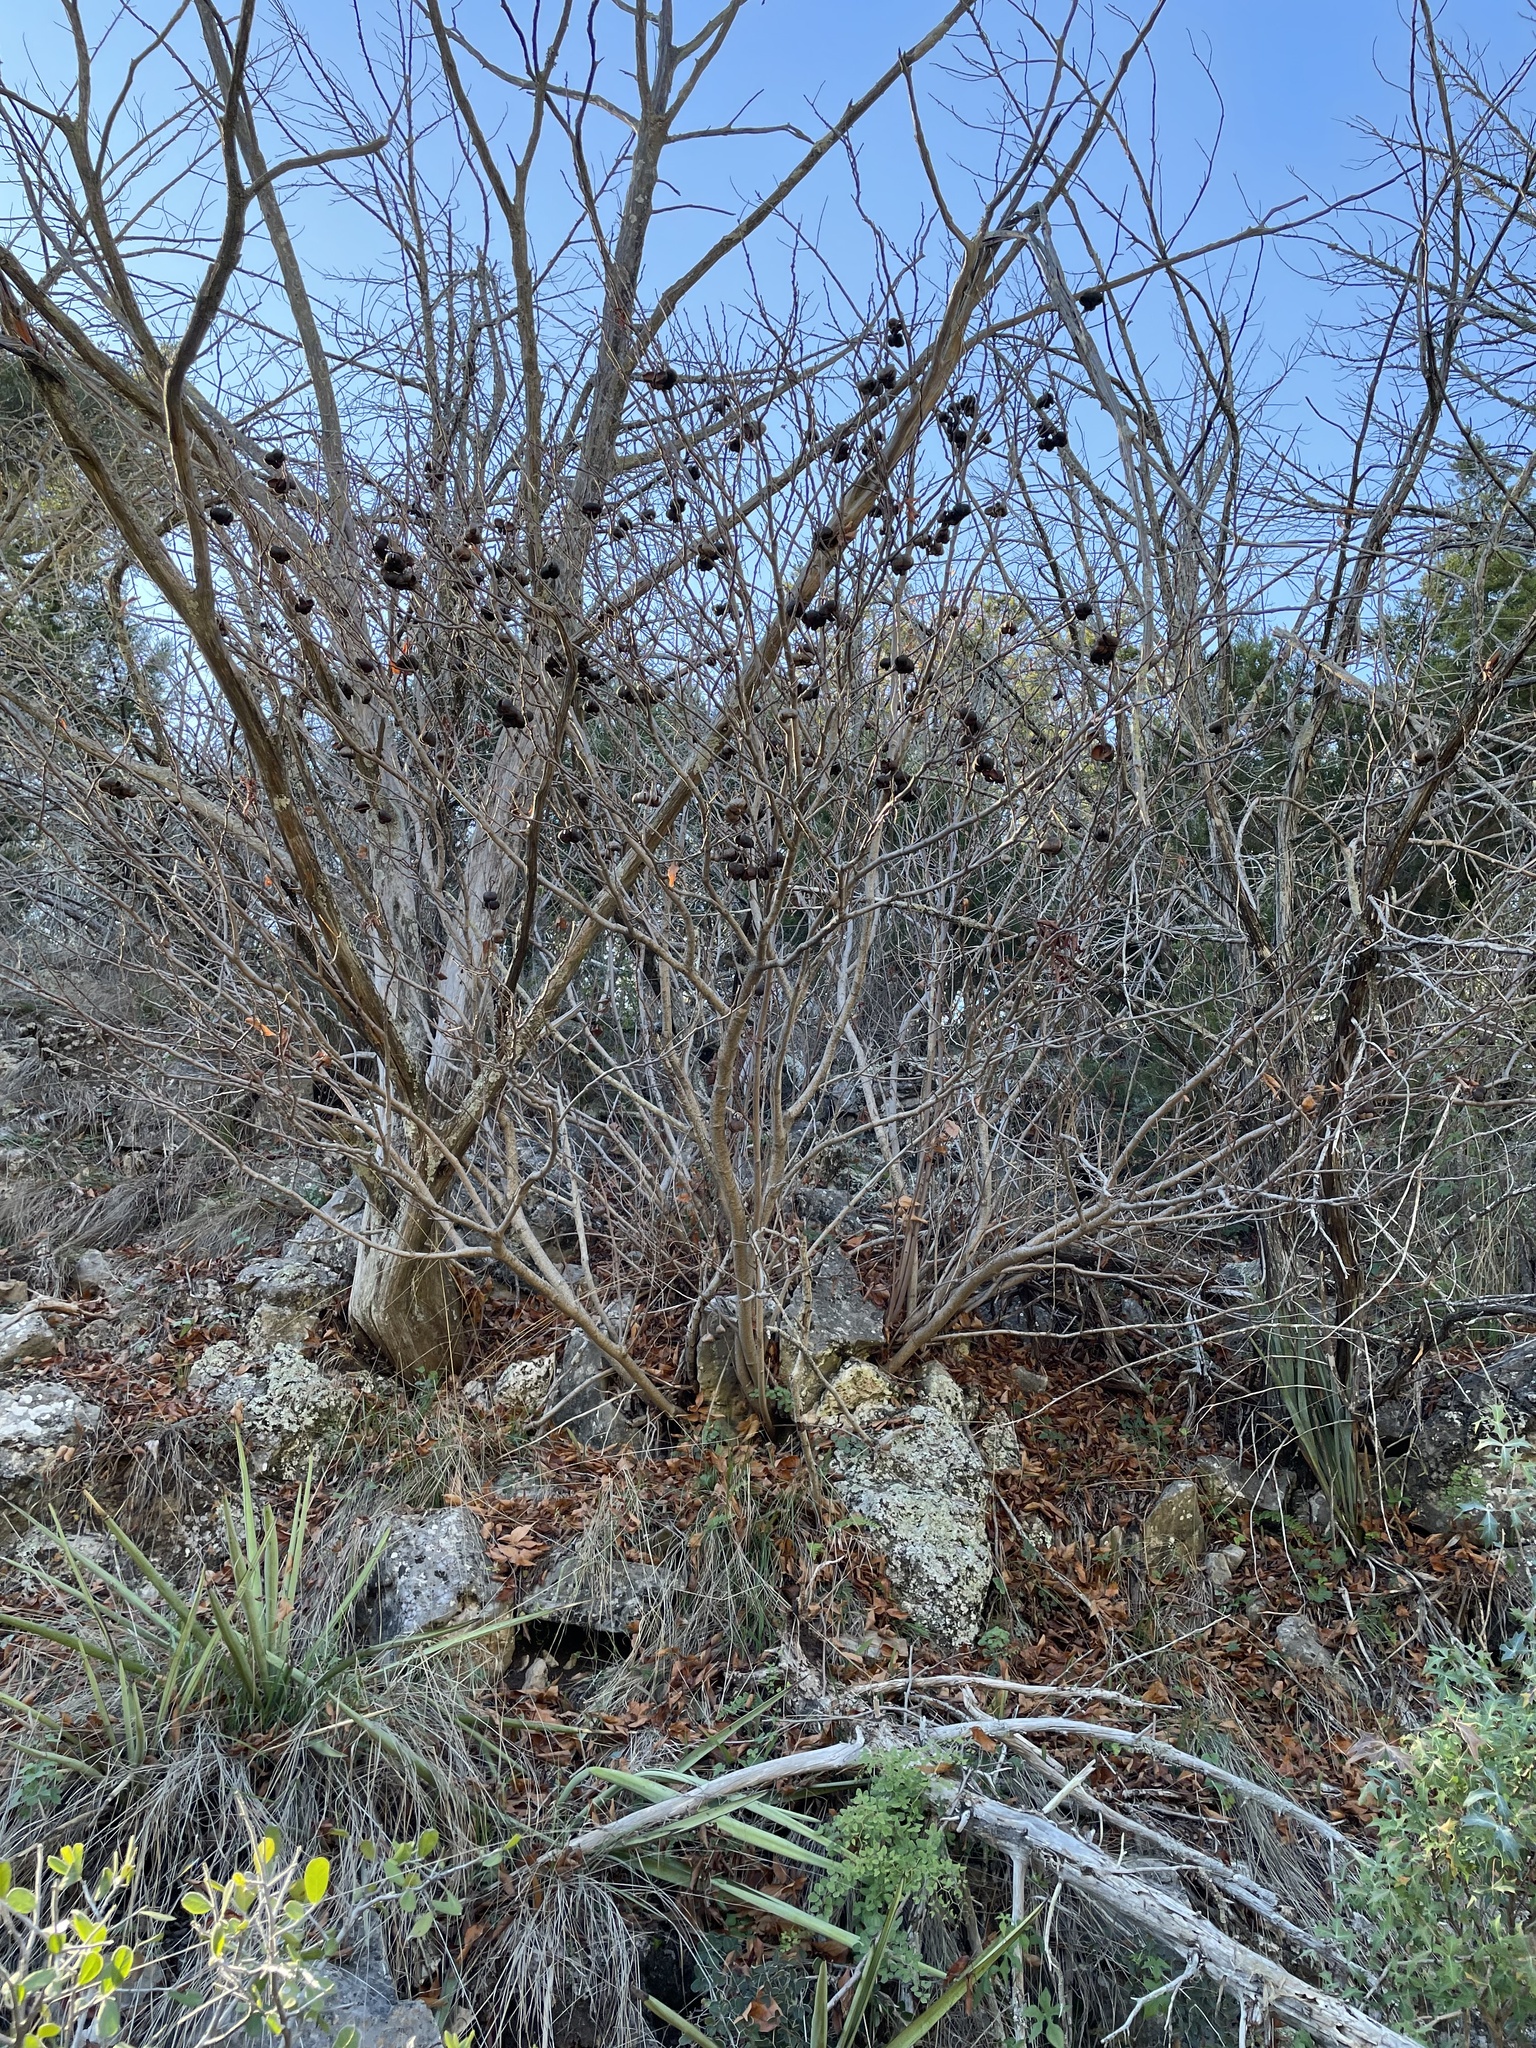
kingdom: Plantae
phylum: Tracheophyta
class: Magnoliopsida
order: Sapindales
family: Sapindaceae
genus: Ungnadia
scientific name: Ungnadia speciosa
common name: Texas-buckeye
